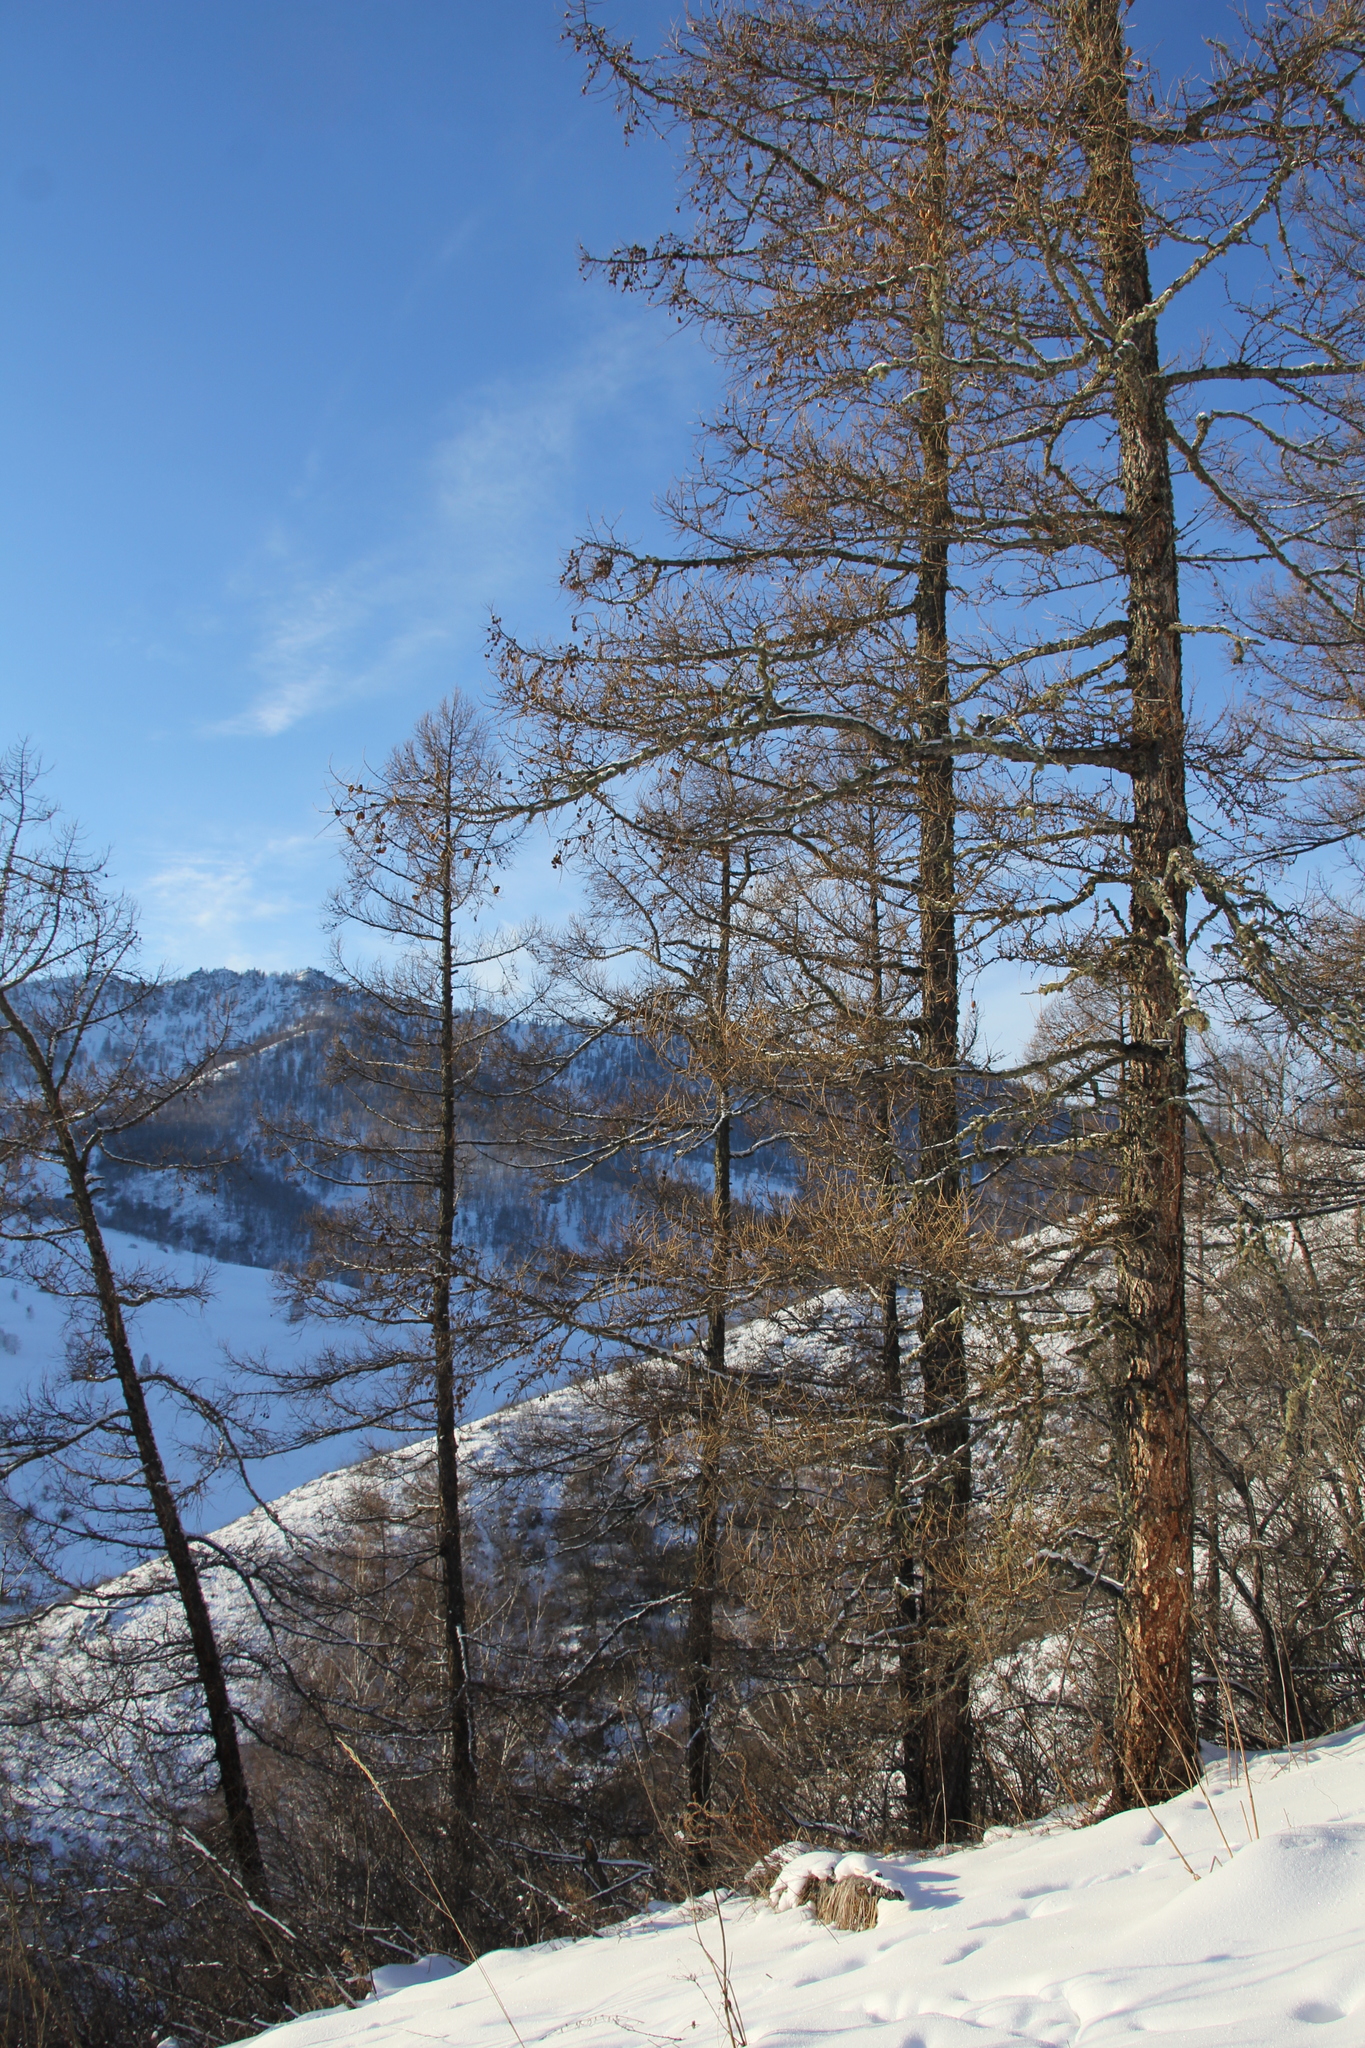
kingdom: Plantae
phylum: Tracheophyta
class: Pinopsida
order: Pinales
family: Pinaceae
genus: Larix
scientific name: Larix sibirica
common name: Siberian larch
